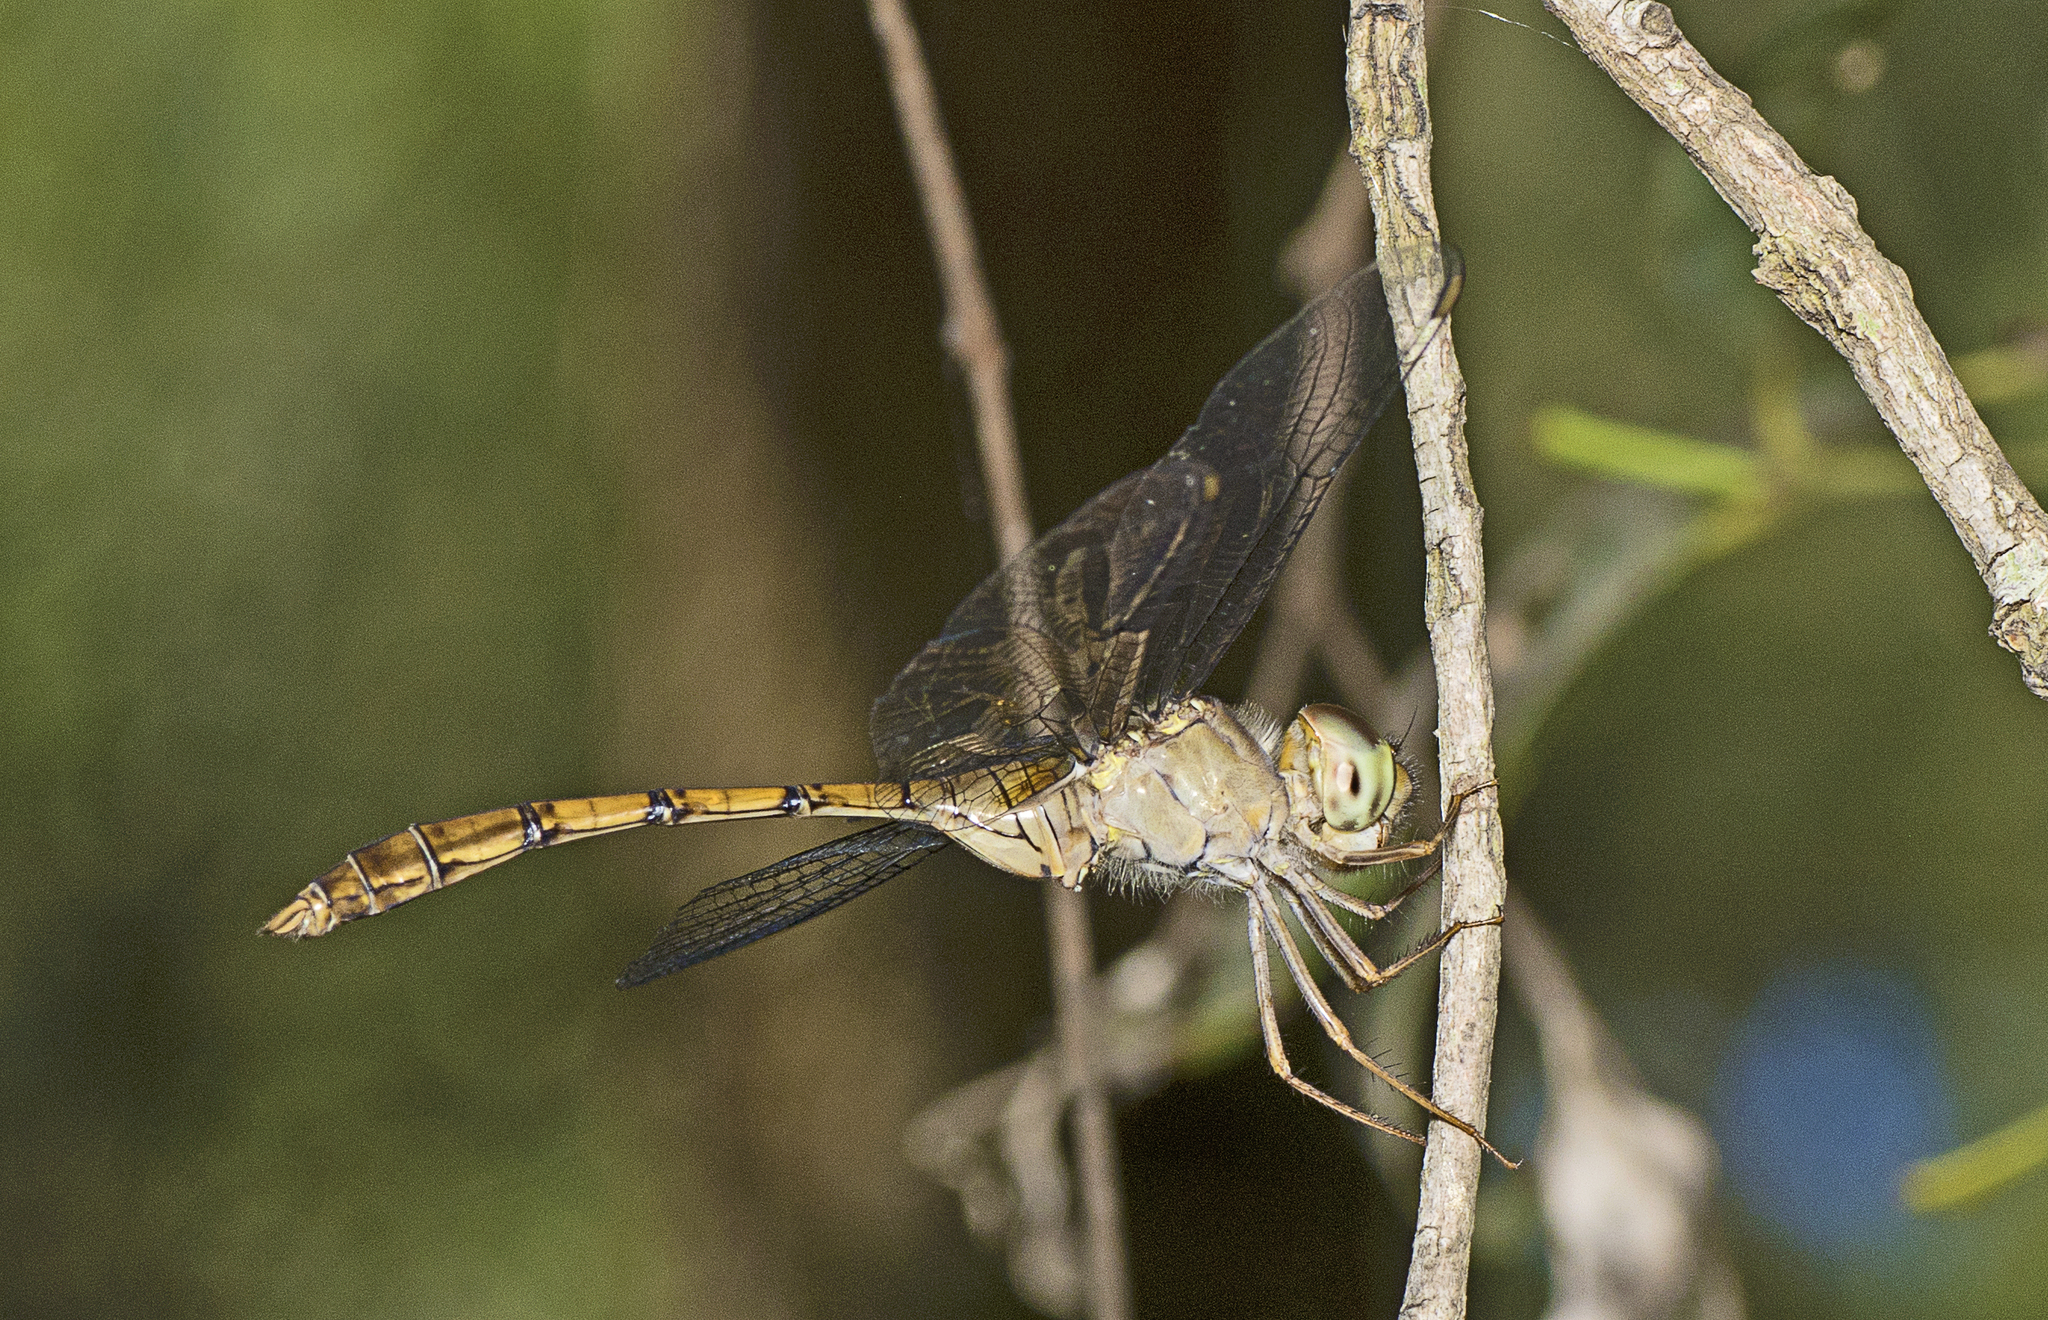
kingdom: Animalia
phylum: Arthropoda
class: Insecta
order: Odonata
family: Libellulidae
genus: Zyxomma
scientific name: Zyxomma elgneri
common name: Short-tailed duskdarter
